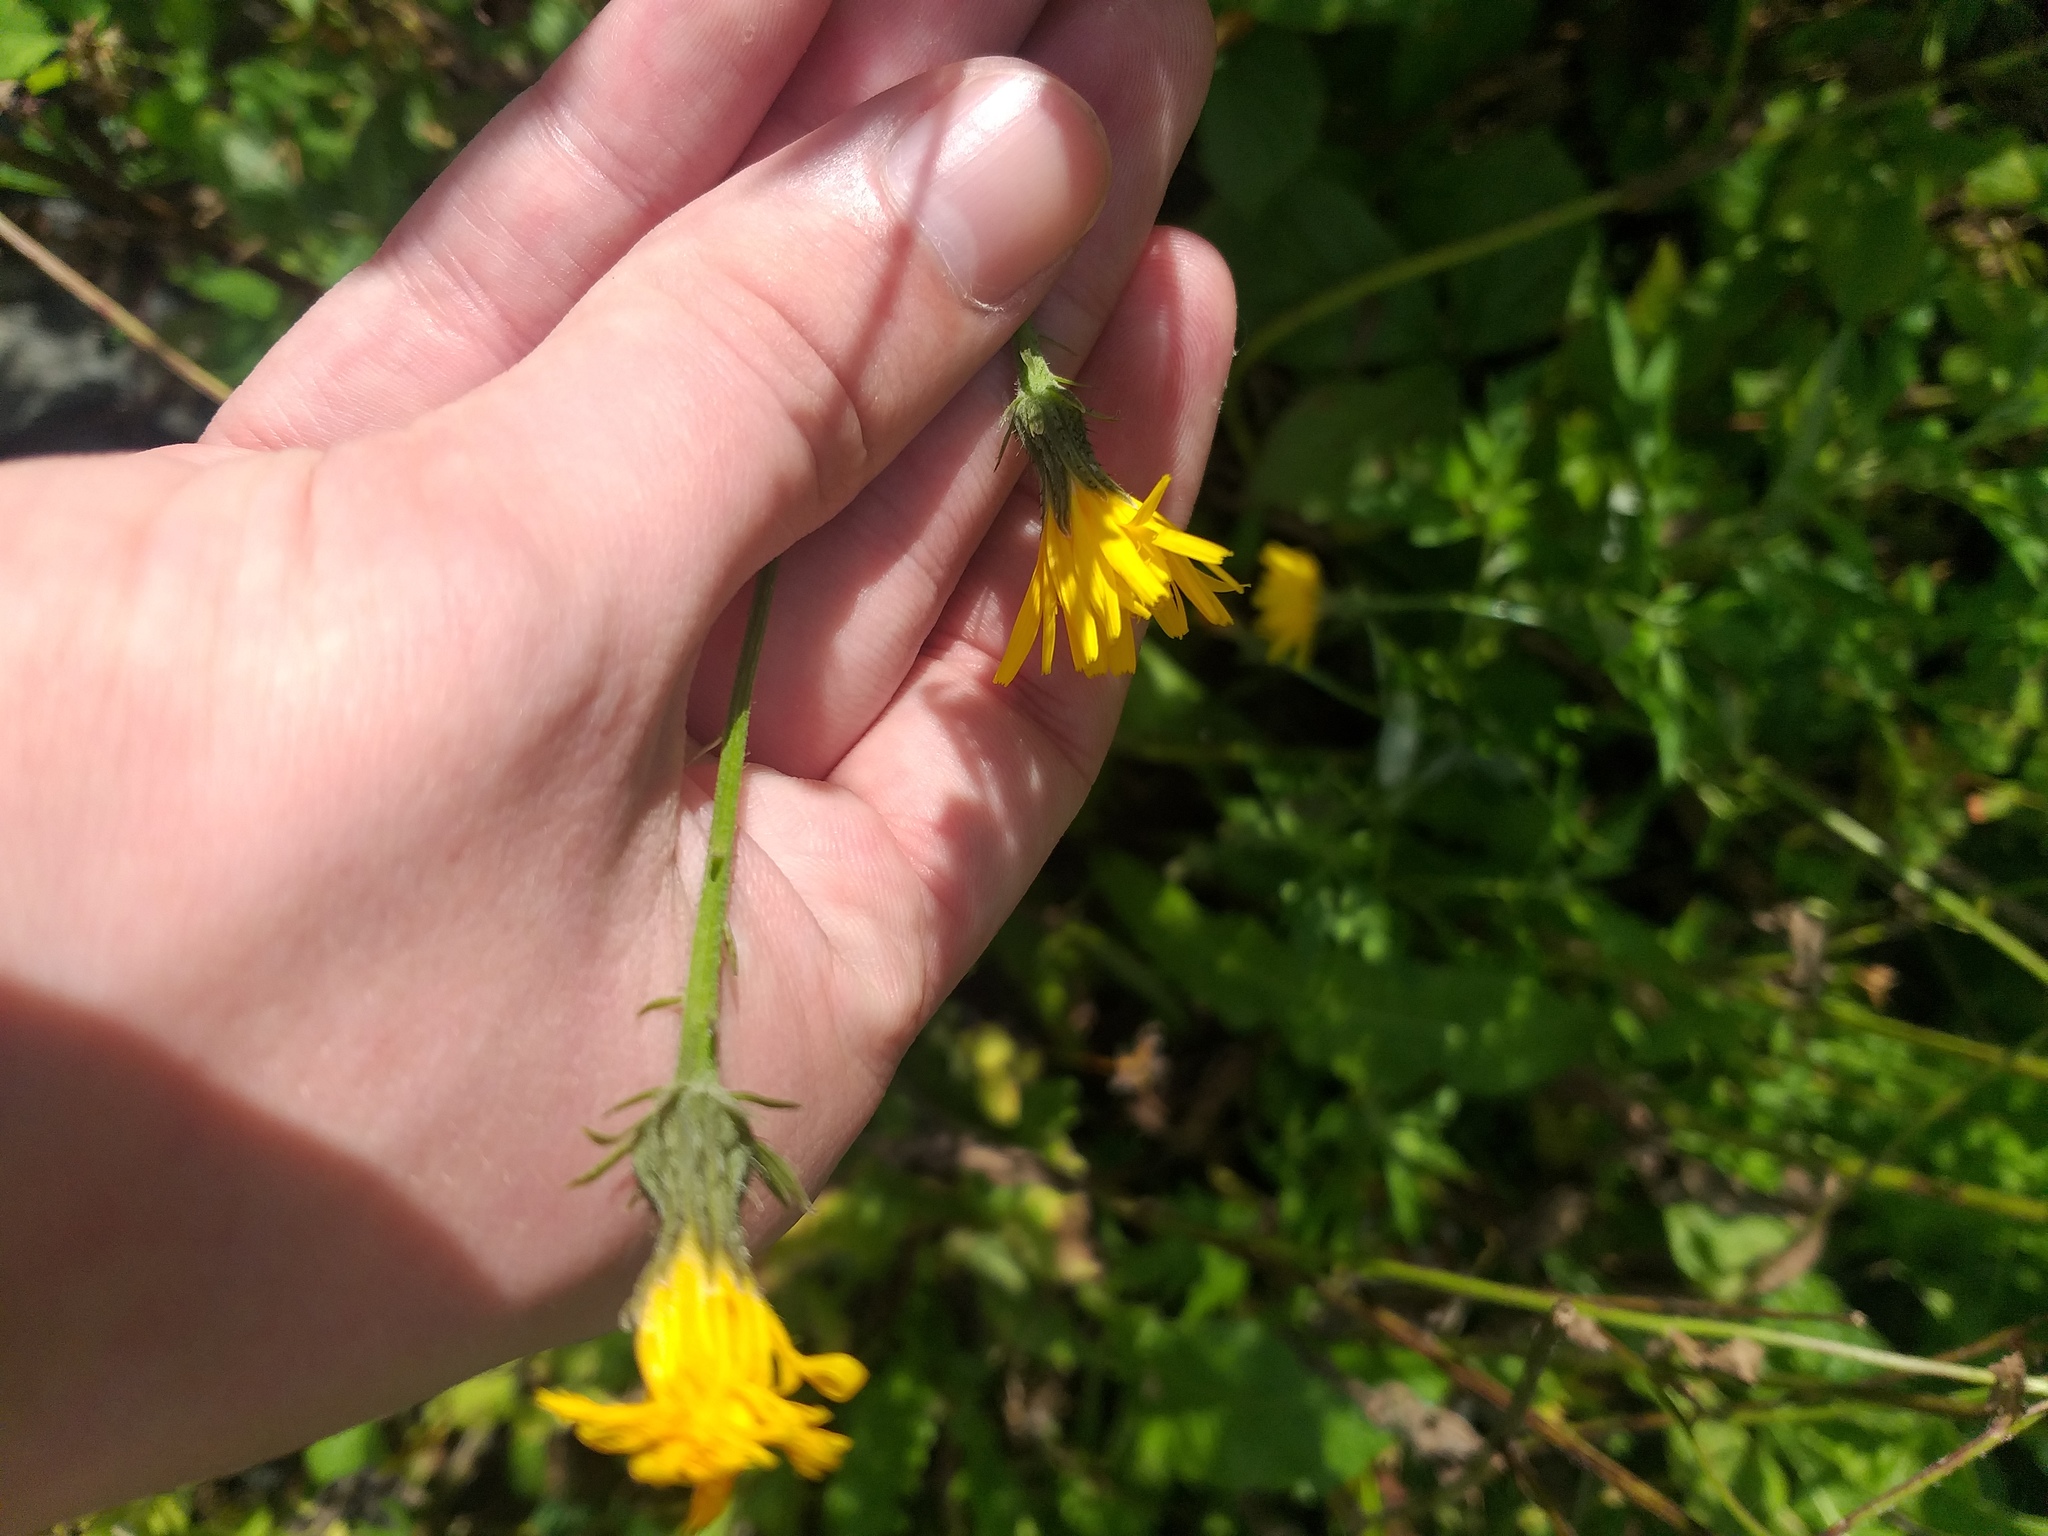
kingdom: Plantae
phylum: Tracheophyta
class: Magnoliopsida
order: Asterales
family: Asteraceae
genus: Picris
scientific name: Picris hieracioides
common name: Hawkweed oxtongue
